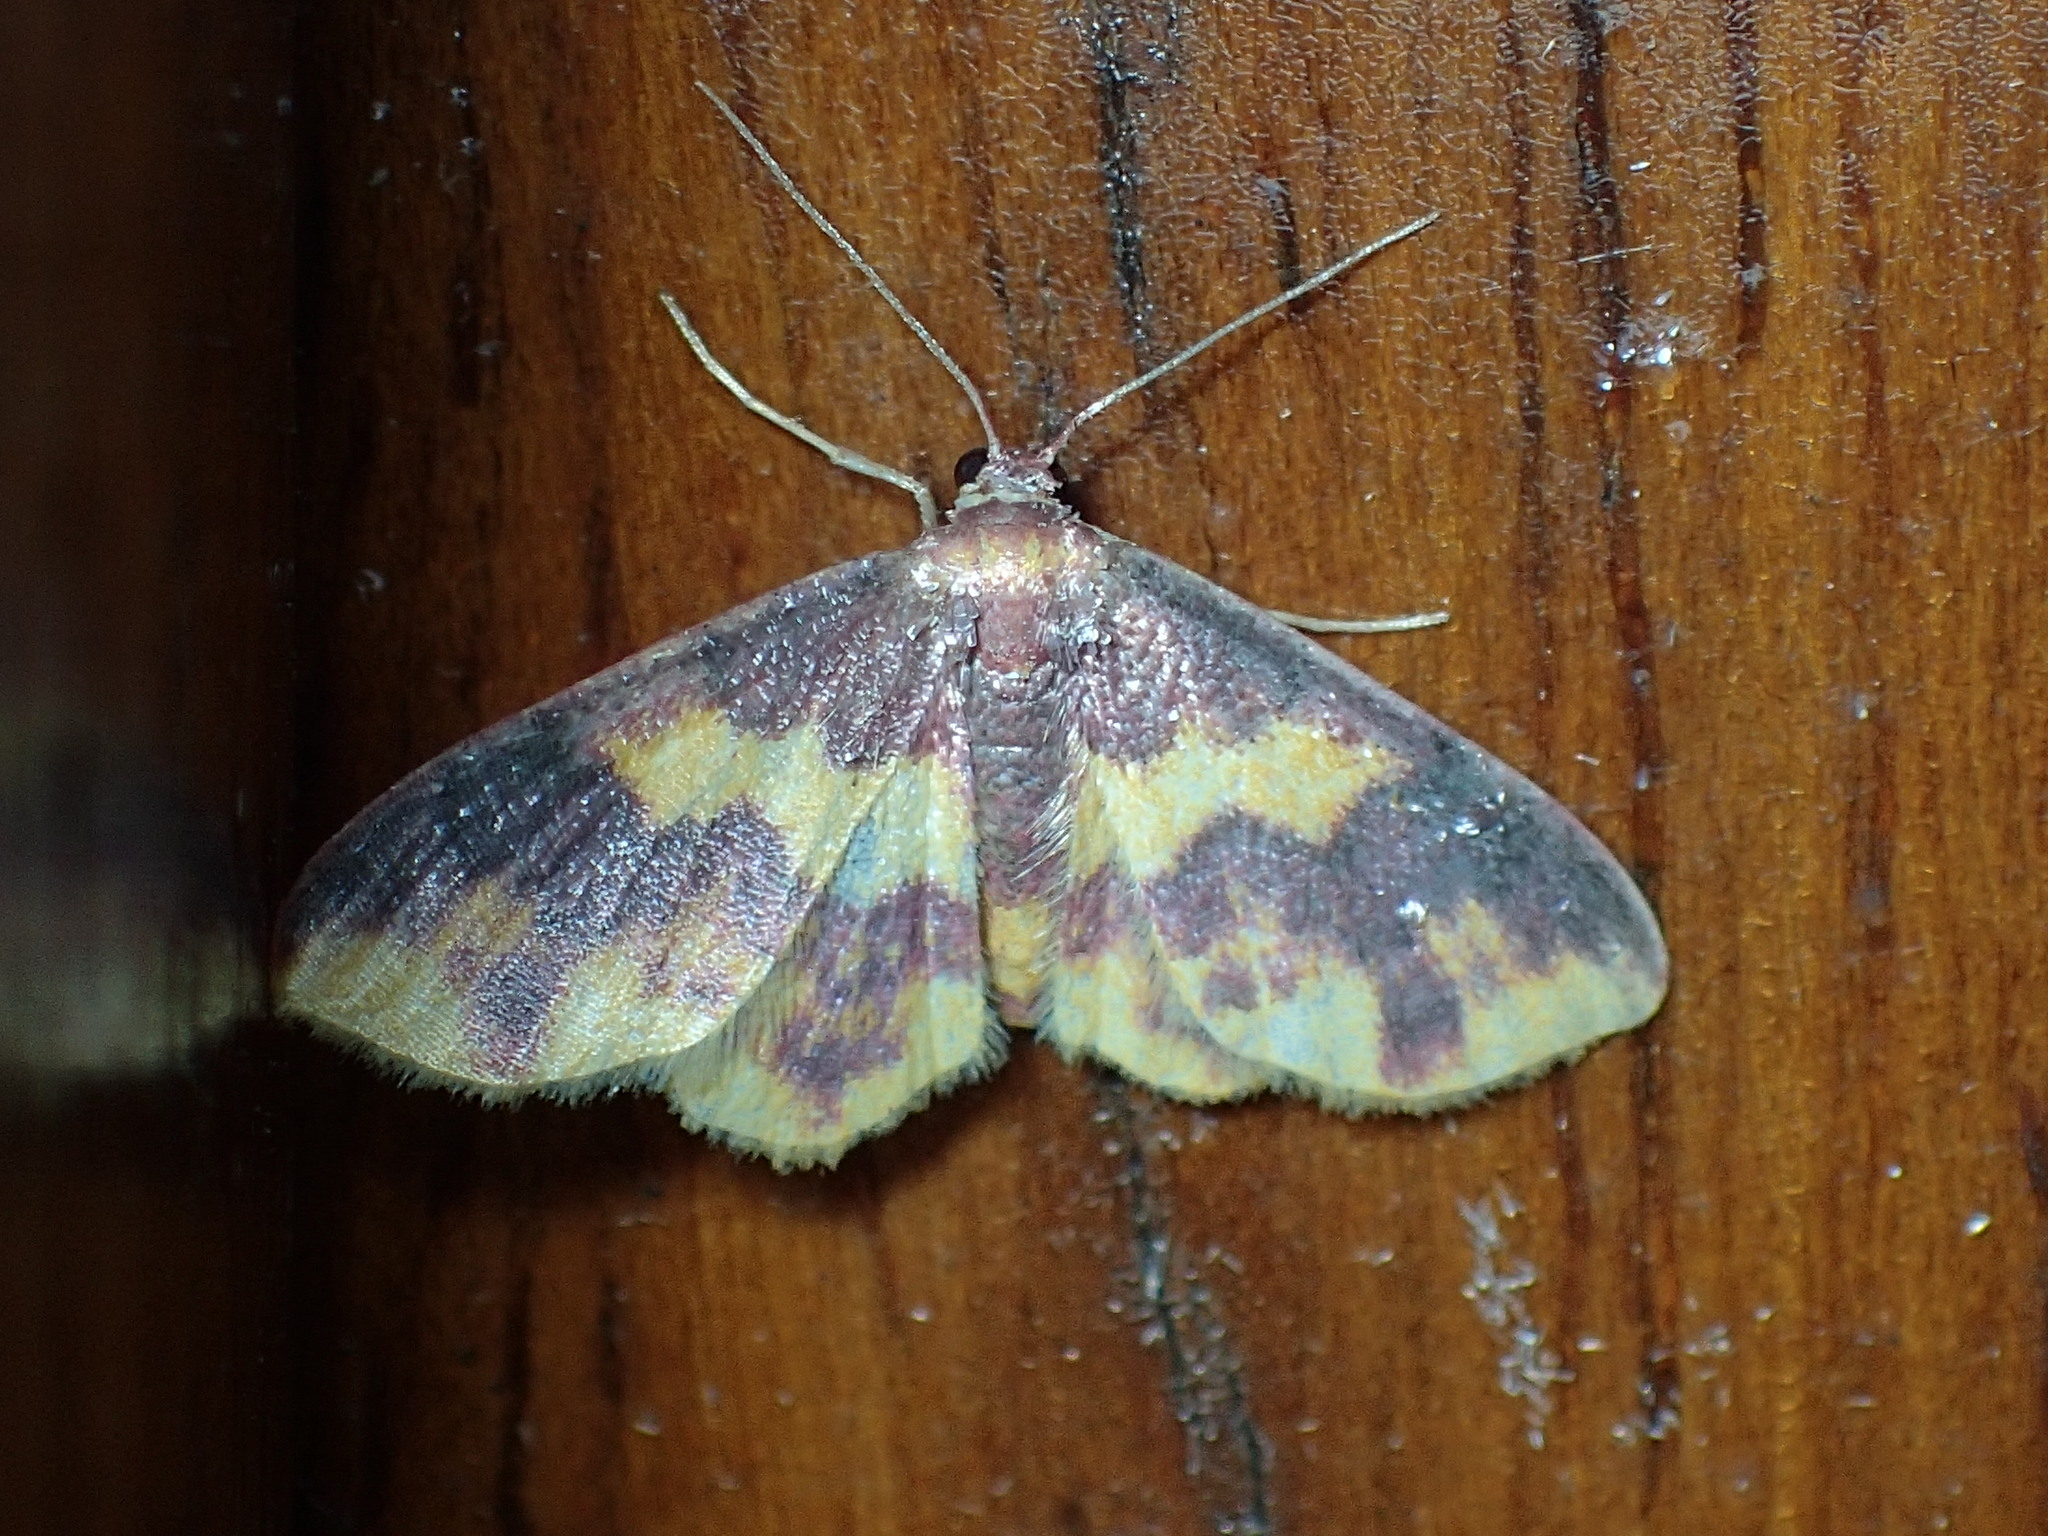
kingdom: Animalia
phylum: Arthropoda
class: Insecta
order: Lepidoptera
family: Geometridae
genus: Lophosis
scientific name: Lophosis labeculata
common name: Stained lophosis moth
